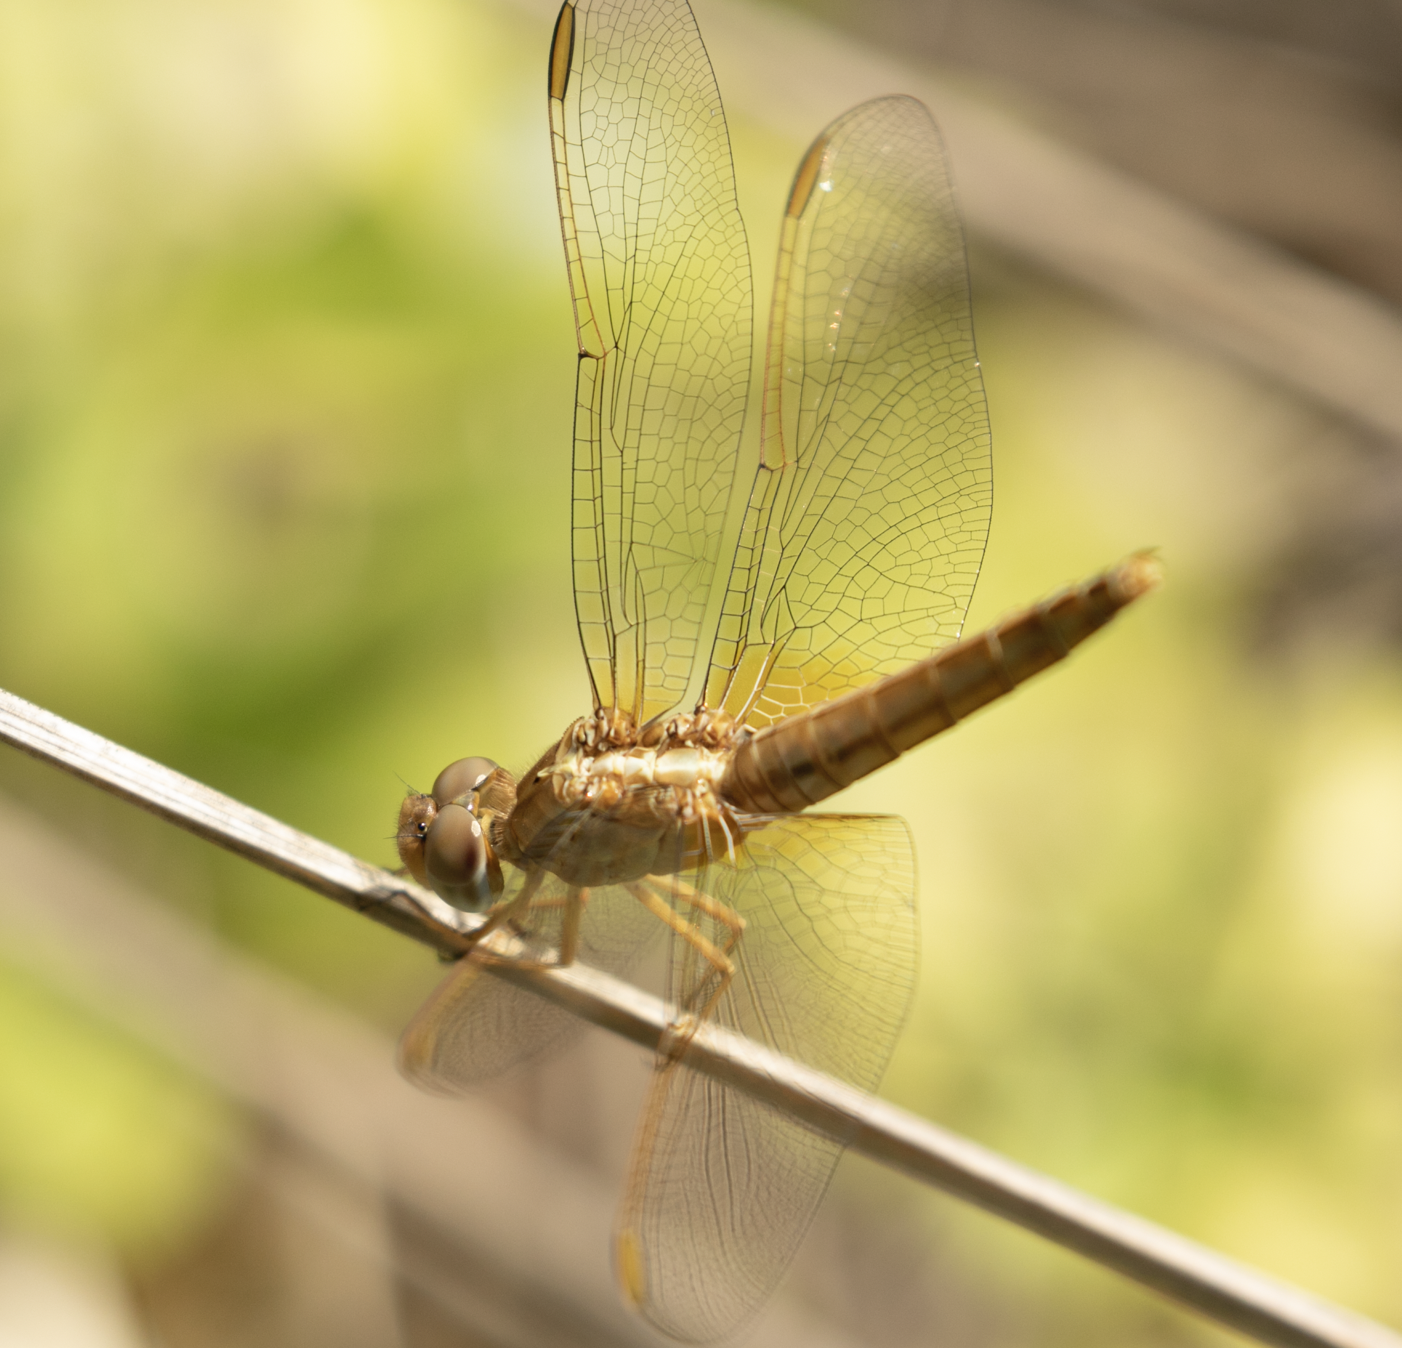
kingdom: Animalia
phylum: Arthropoda
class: Insecta
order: Odonata
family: Libellulidae
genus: Crocothemis
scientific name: Crocothemis erythraea
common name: Scarlet dragonfly
